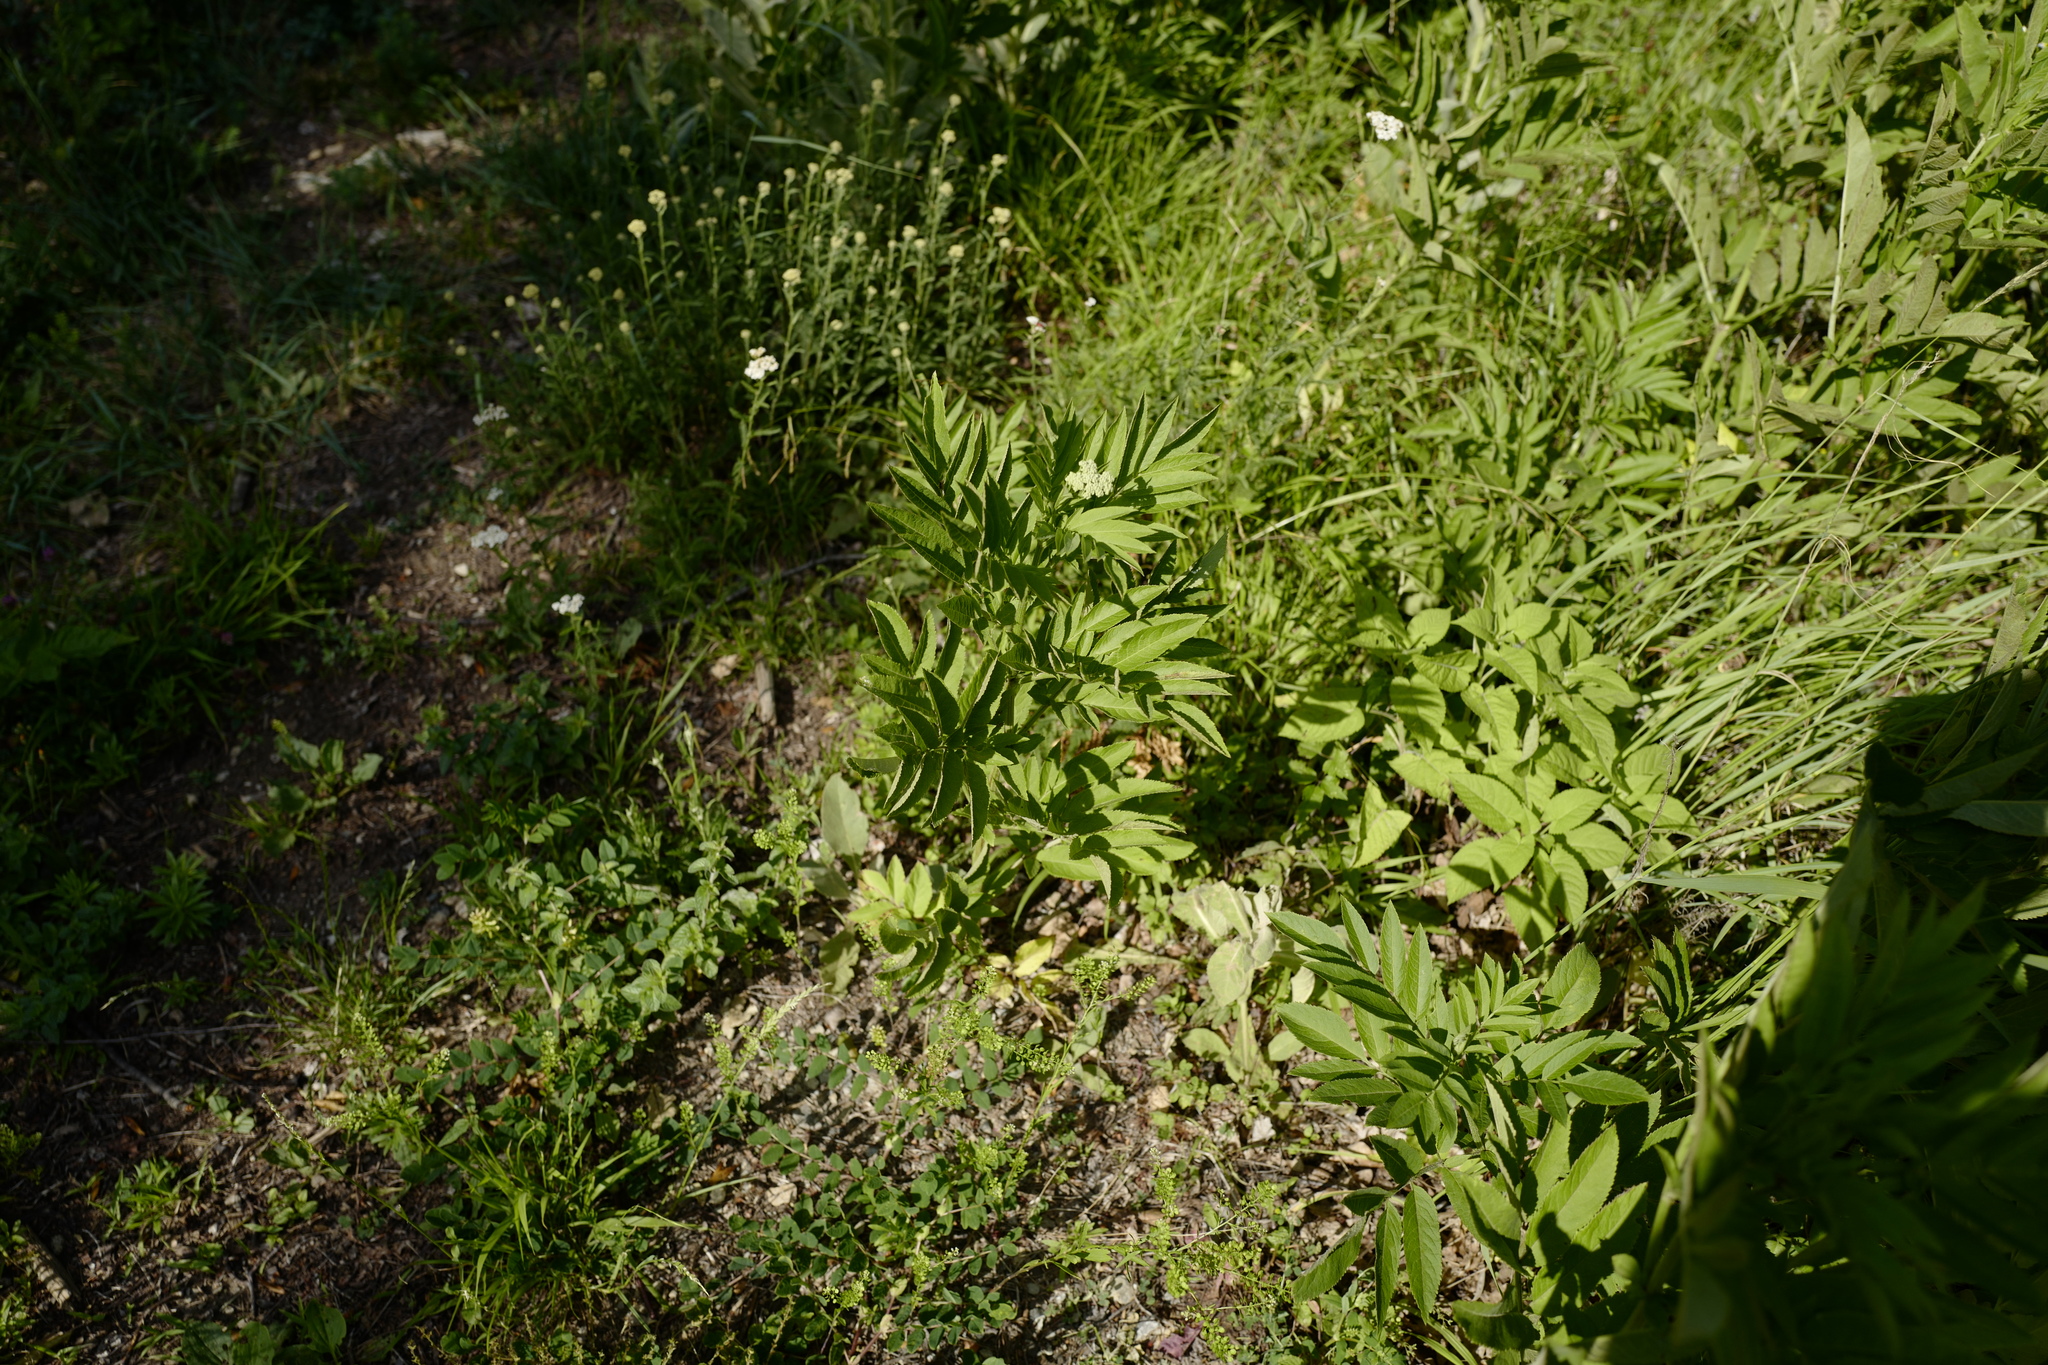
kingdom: Plantae
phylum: Tracheophyta
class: Magnoliopsida
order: Dipsacales
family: Viburnaceae
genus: Sambucus
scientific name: Sambucus ebulus
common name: Dwarf elder
